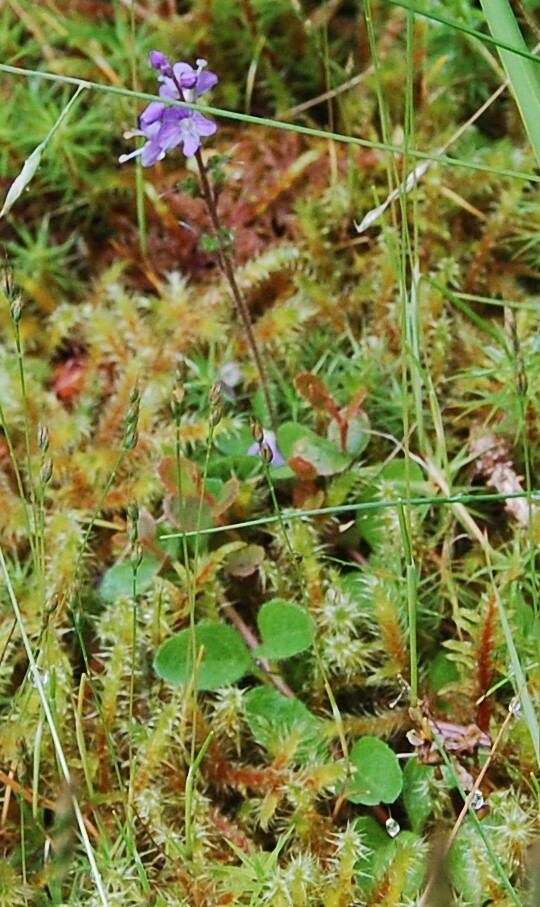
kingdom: Plantae
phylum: Tracheophyta
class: Magnoliopsida
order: Lamiales
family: Plantaginaceae
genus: Veronica
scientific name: Veronica officinalis
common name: Common speedwell
